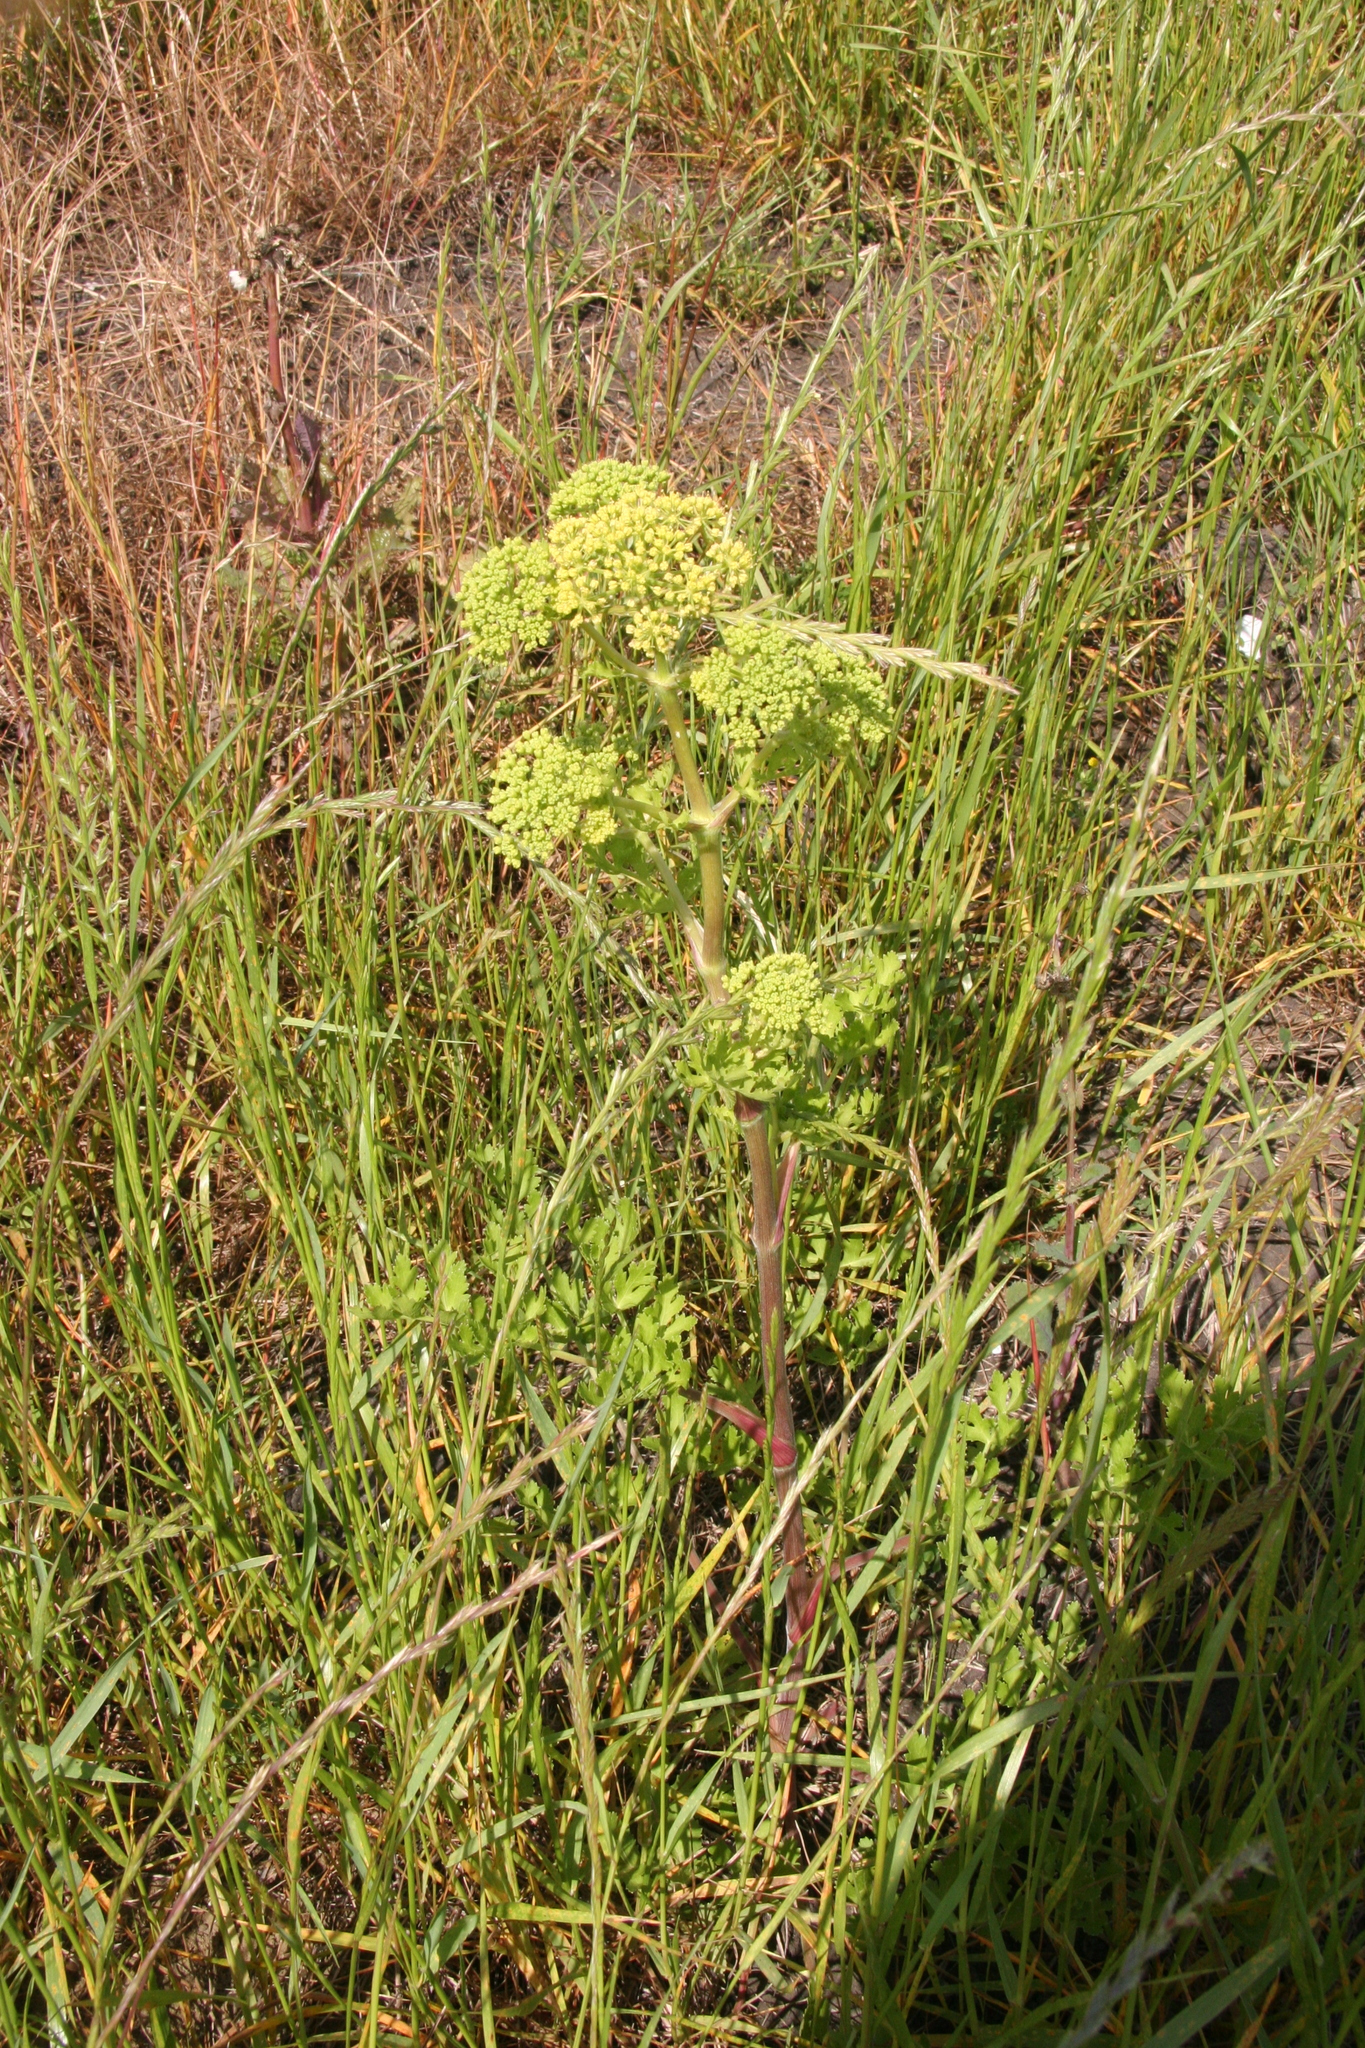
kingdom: Plantae
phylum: Tracheophyta
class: Magnoliopsida
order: Apiales
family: Apiaceae
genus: Polytaenia
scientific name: Polytaenia texana
